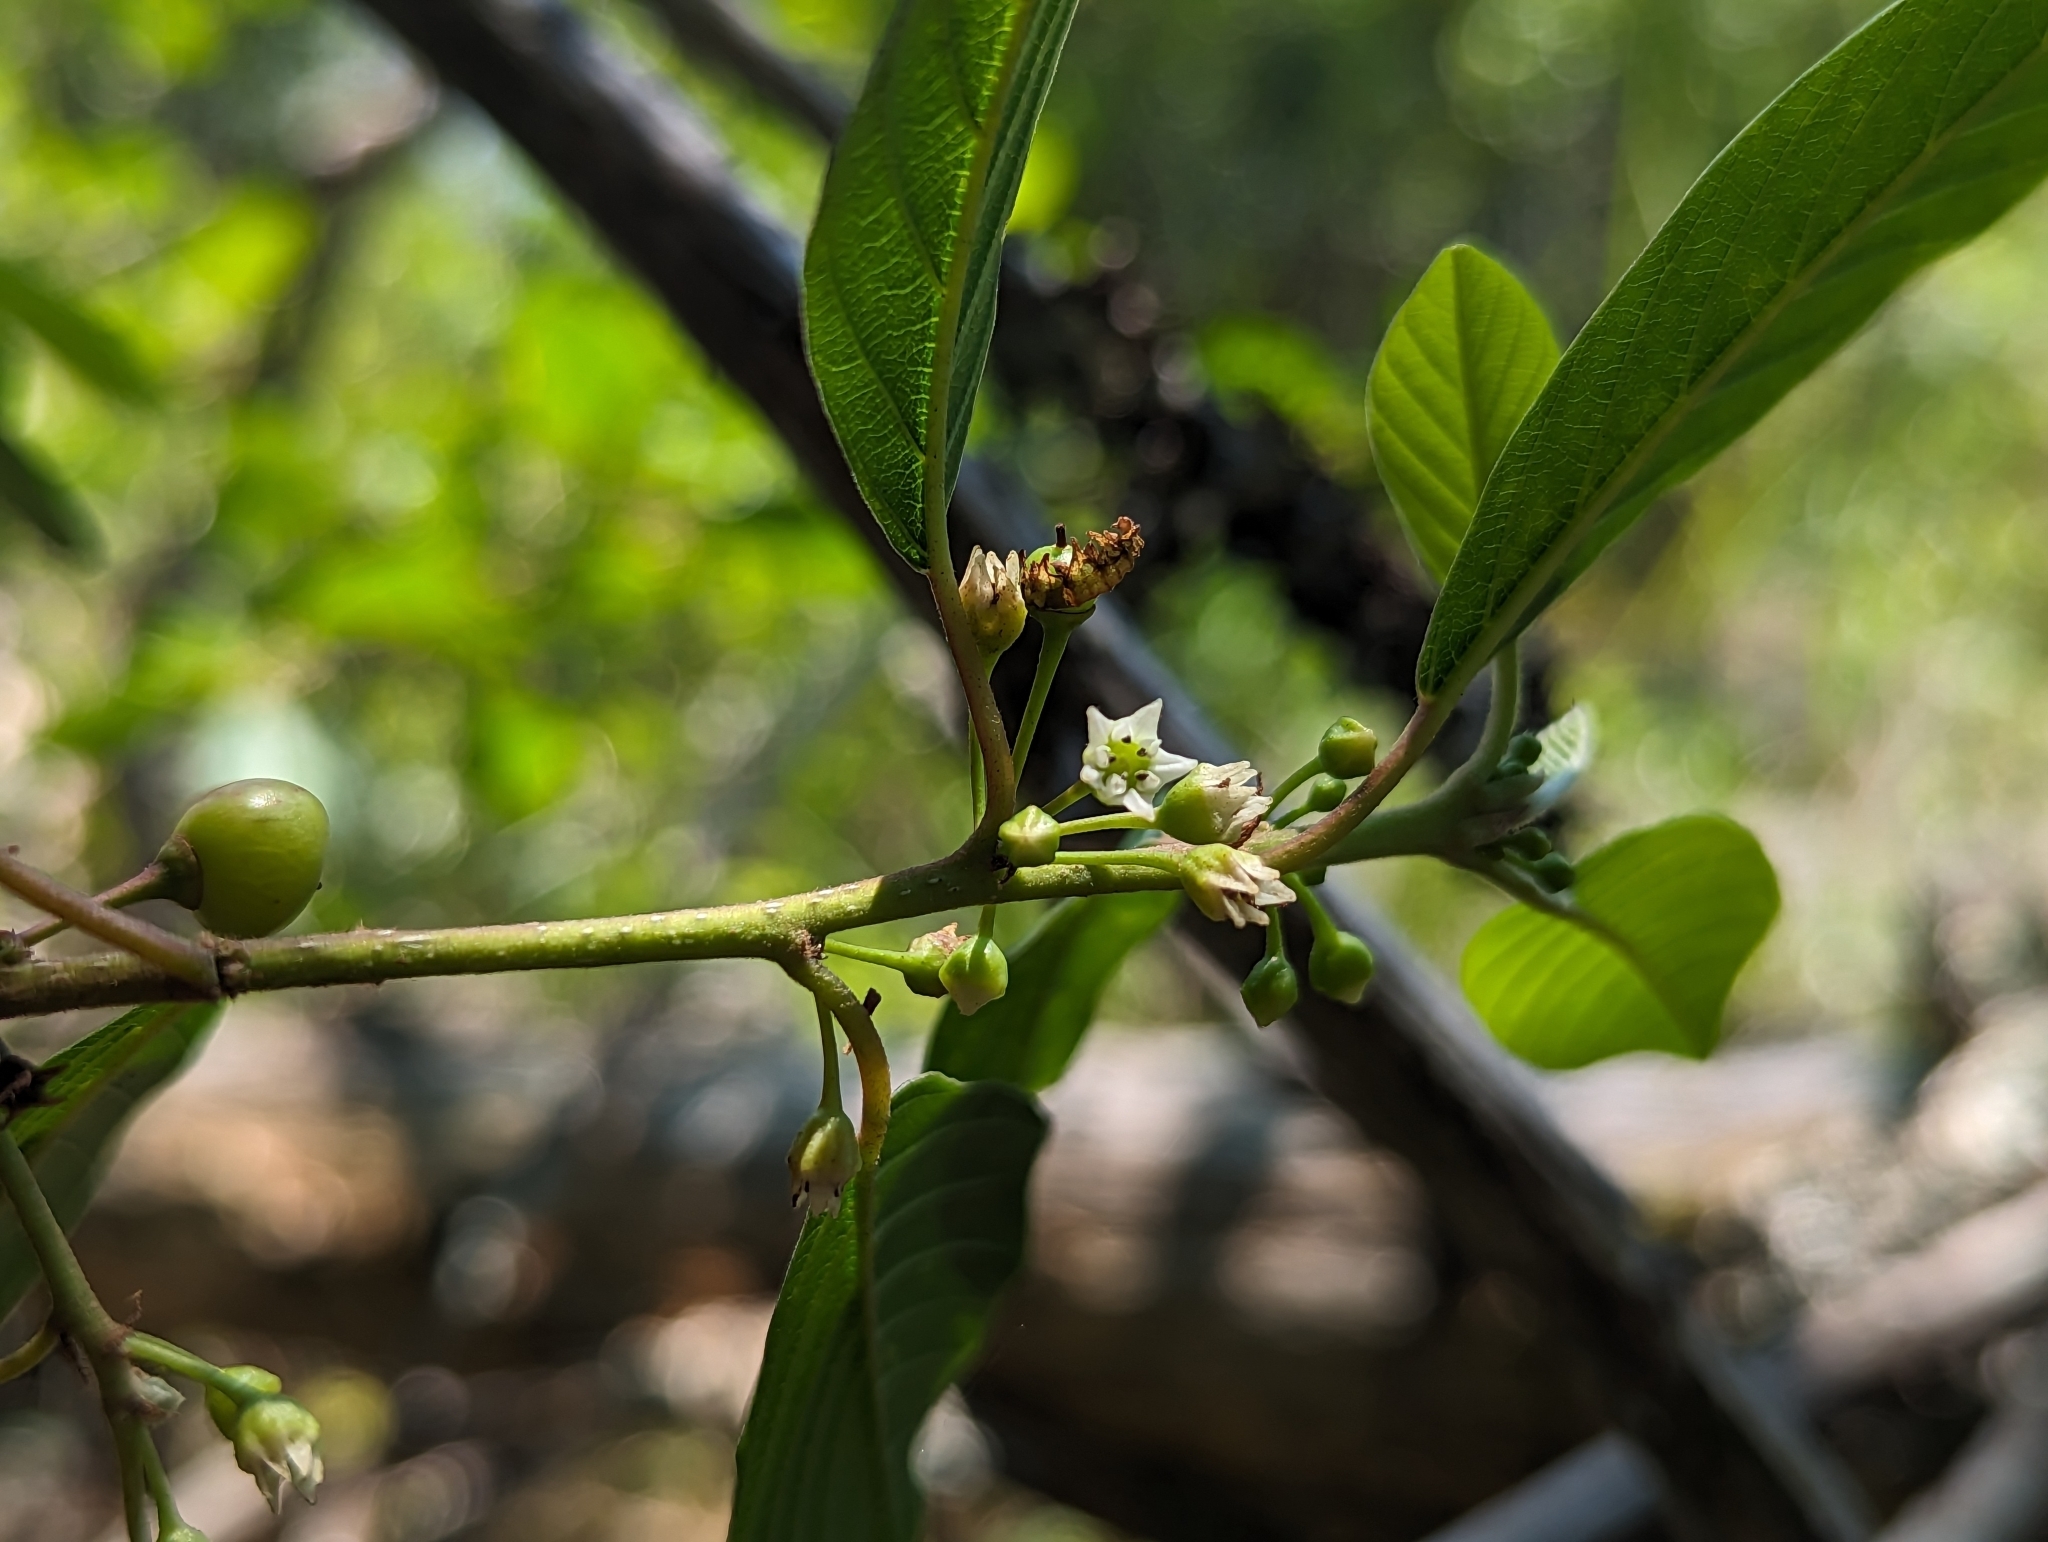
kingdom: Plantae
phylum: Tracheophyta
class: Magnoliopsida
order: Rosales
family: Rhamnaceae
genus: Frangula
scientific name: Frangula alnus
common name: Alder buckthorn
